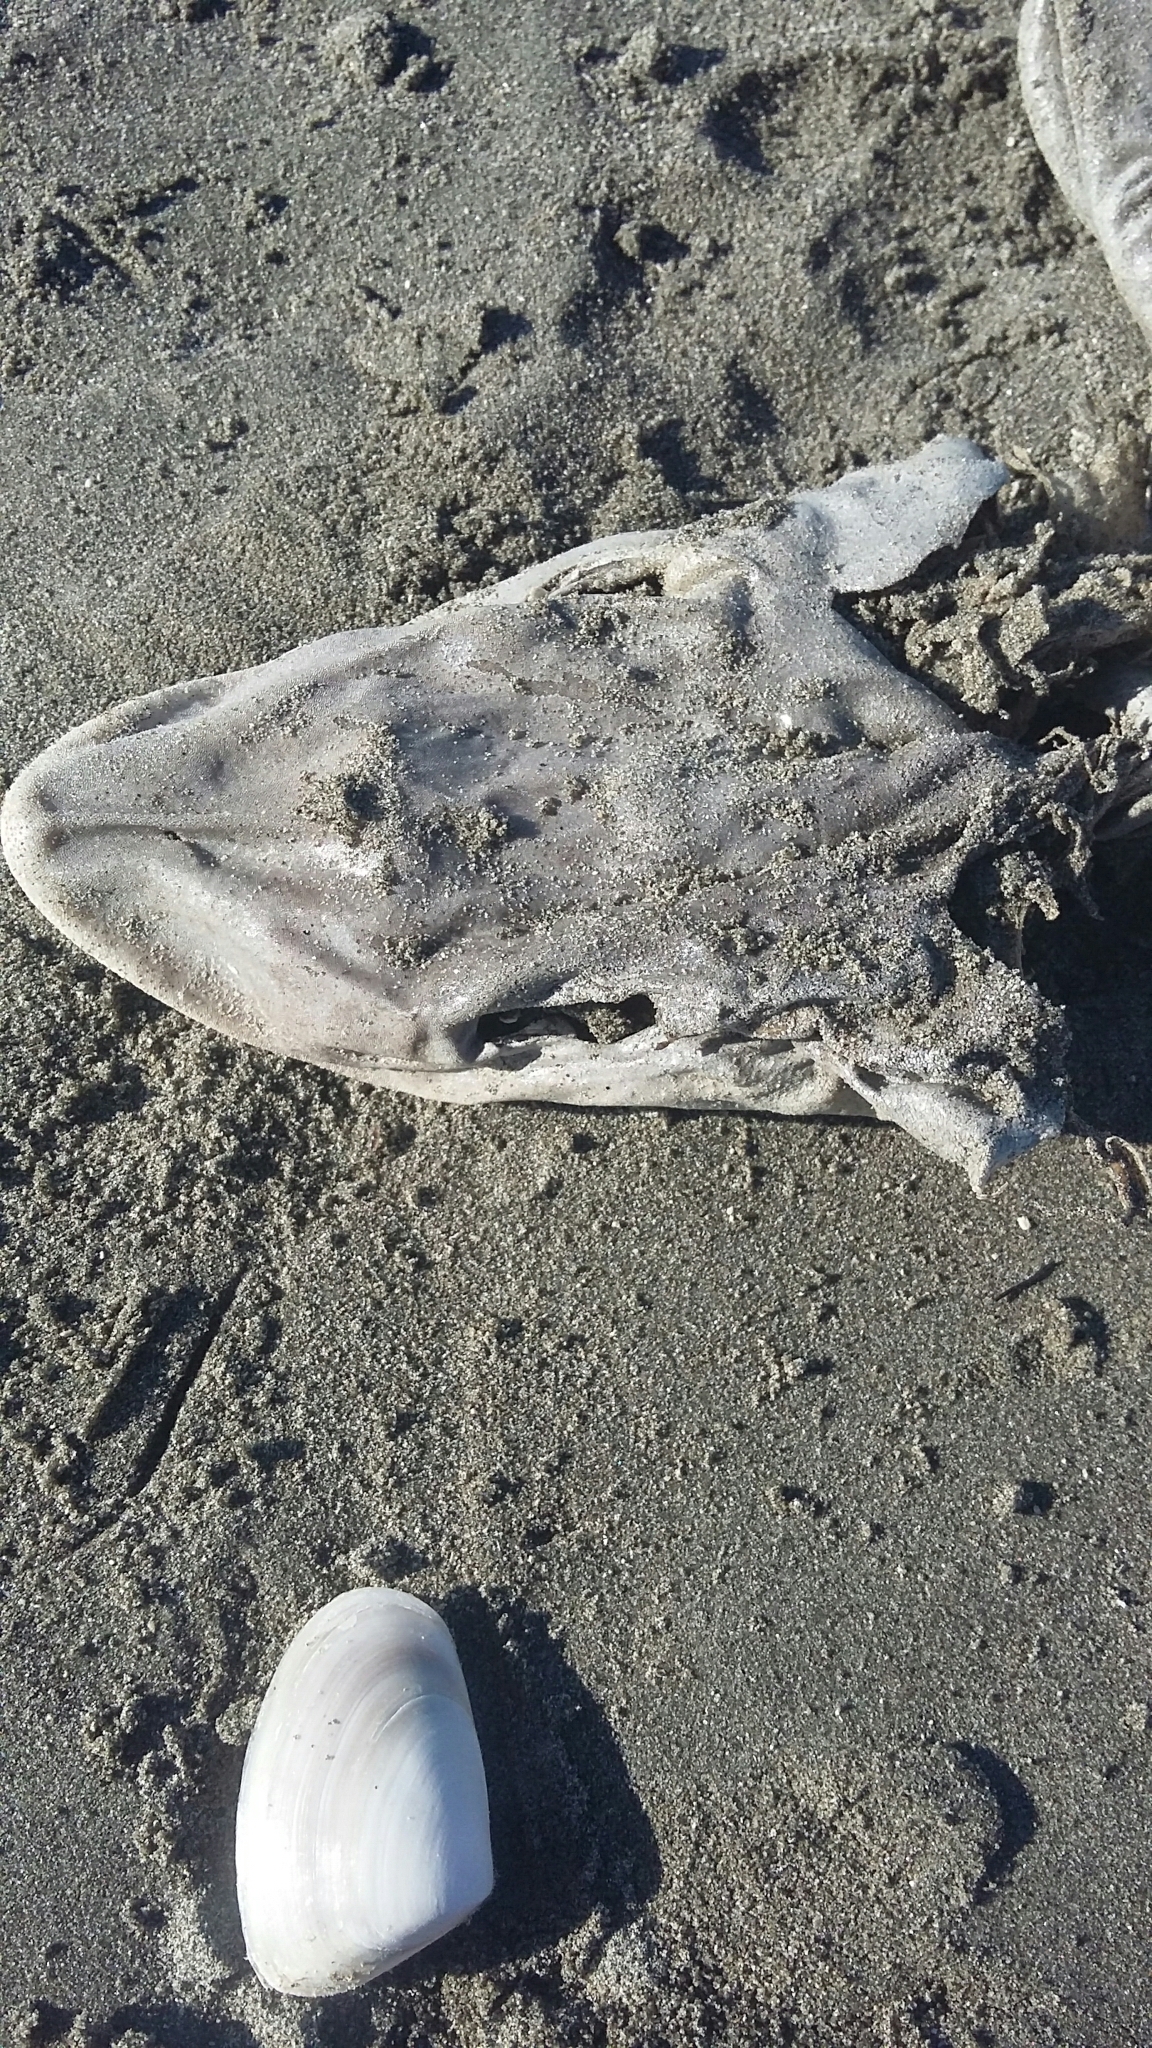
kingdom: Animalia
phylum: Chordata
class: Elasmobranchii
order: Carcharhiniformes
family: Triakidae
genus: Mustelus
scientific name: Mustelus lenticulatus
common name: Gummy shark
